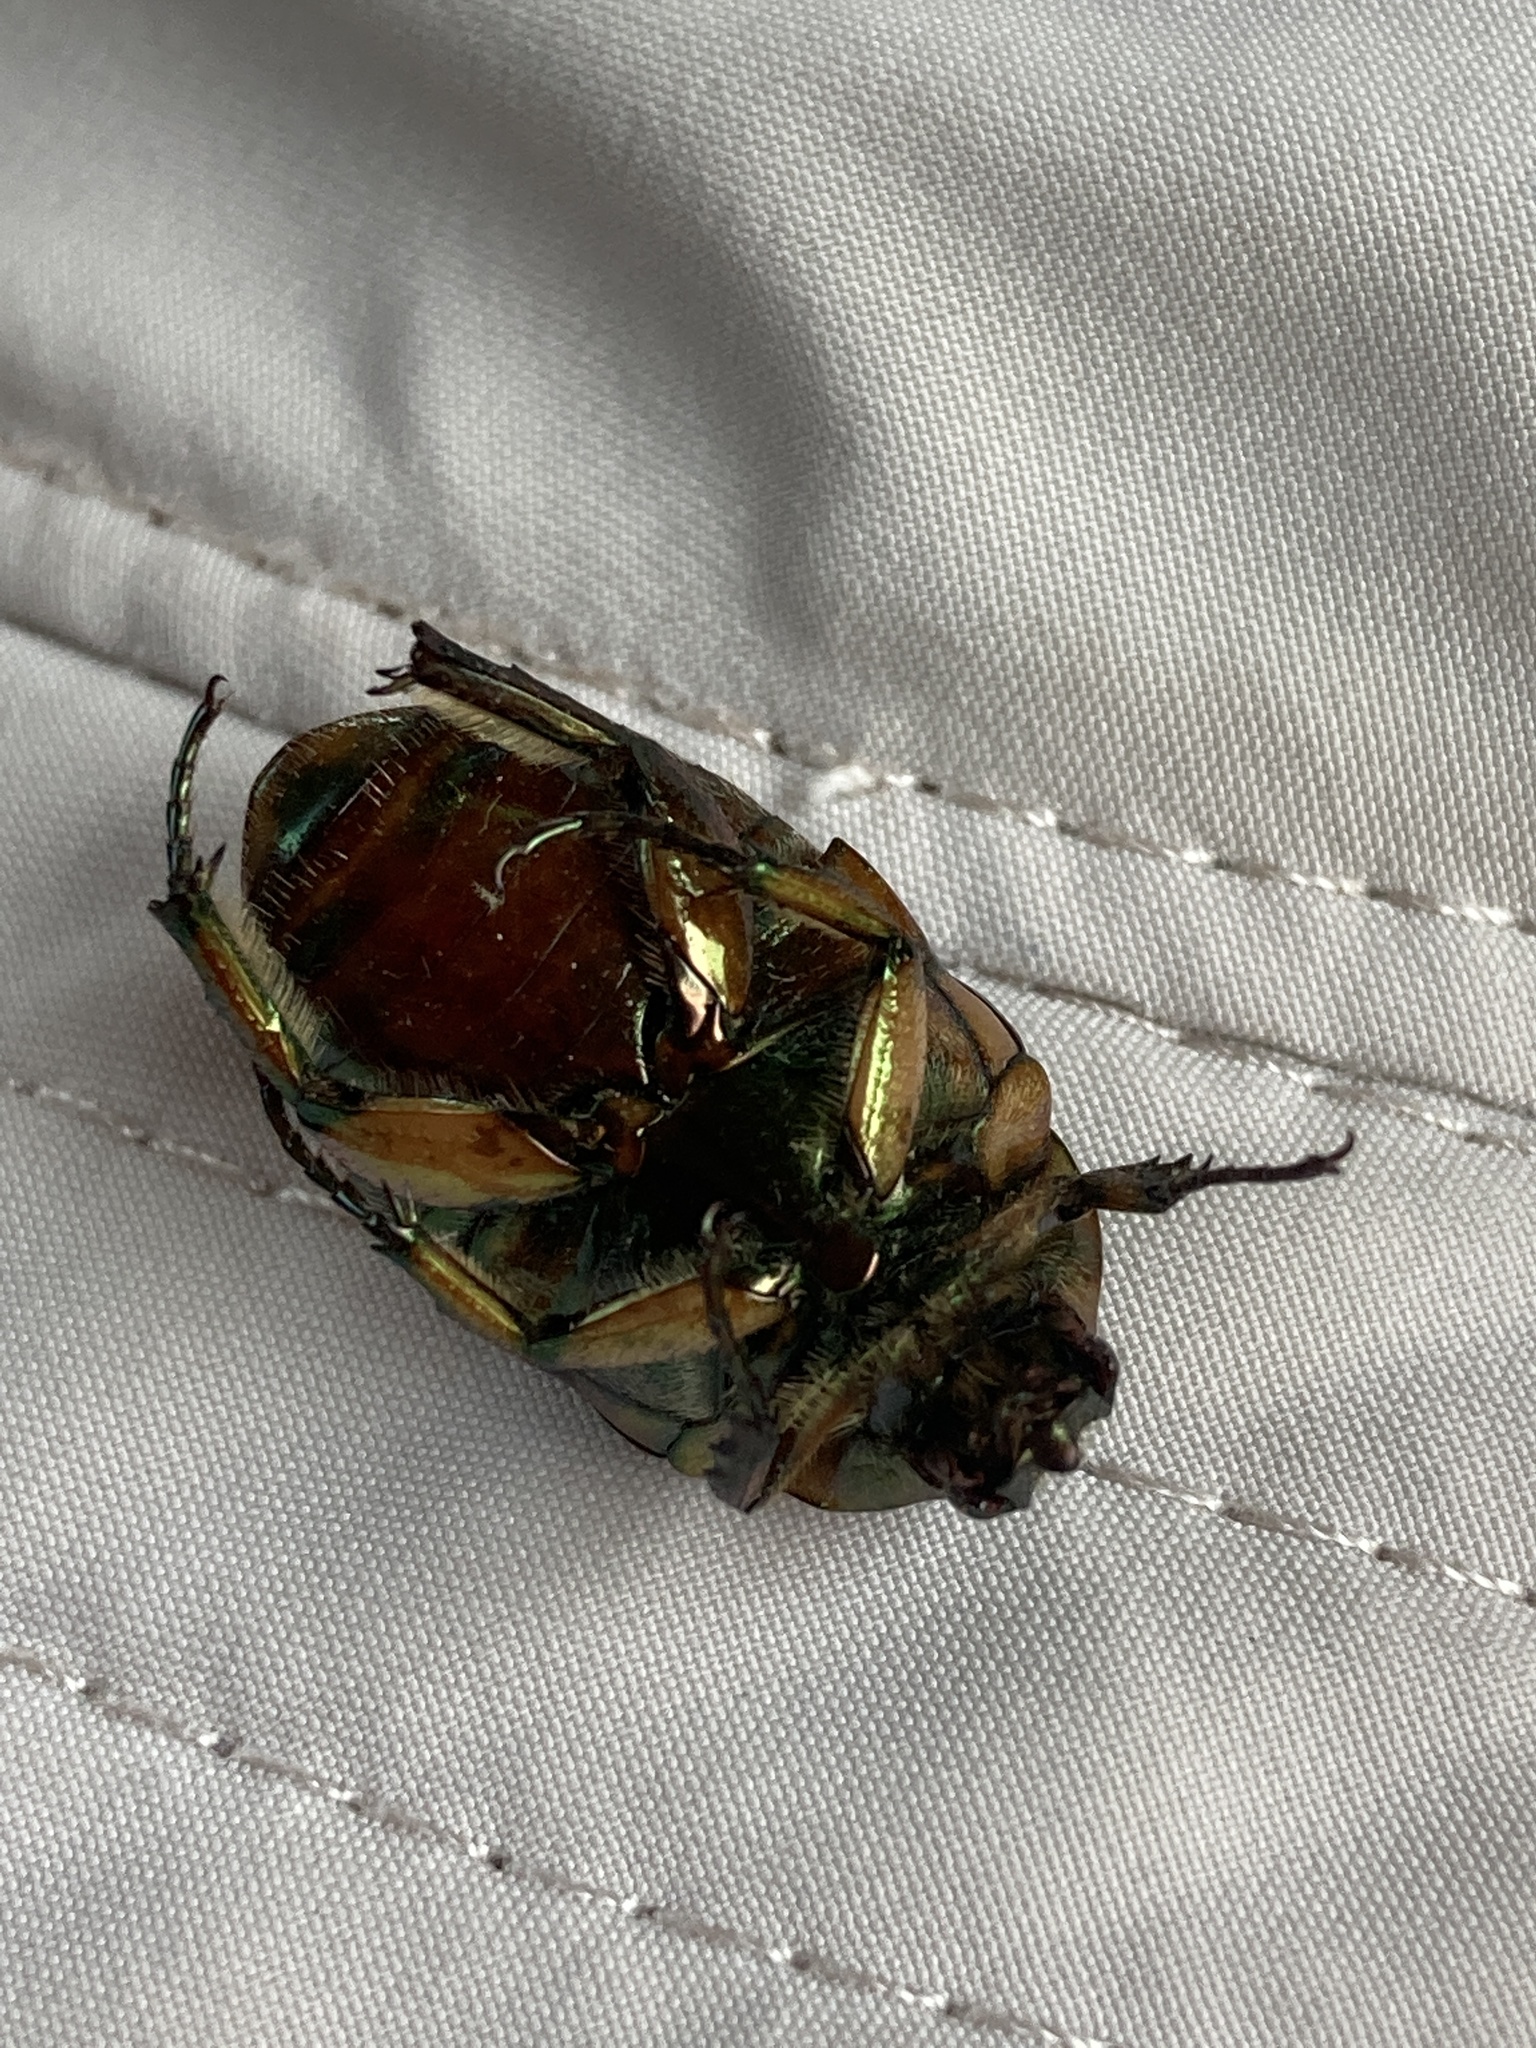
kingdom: Animalia
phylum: Arthropoda
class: Insecta
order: Coleoptera
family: Scarabaeidae
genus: Cotinis
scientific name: Cotinis nitida
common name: Common green june beetle
